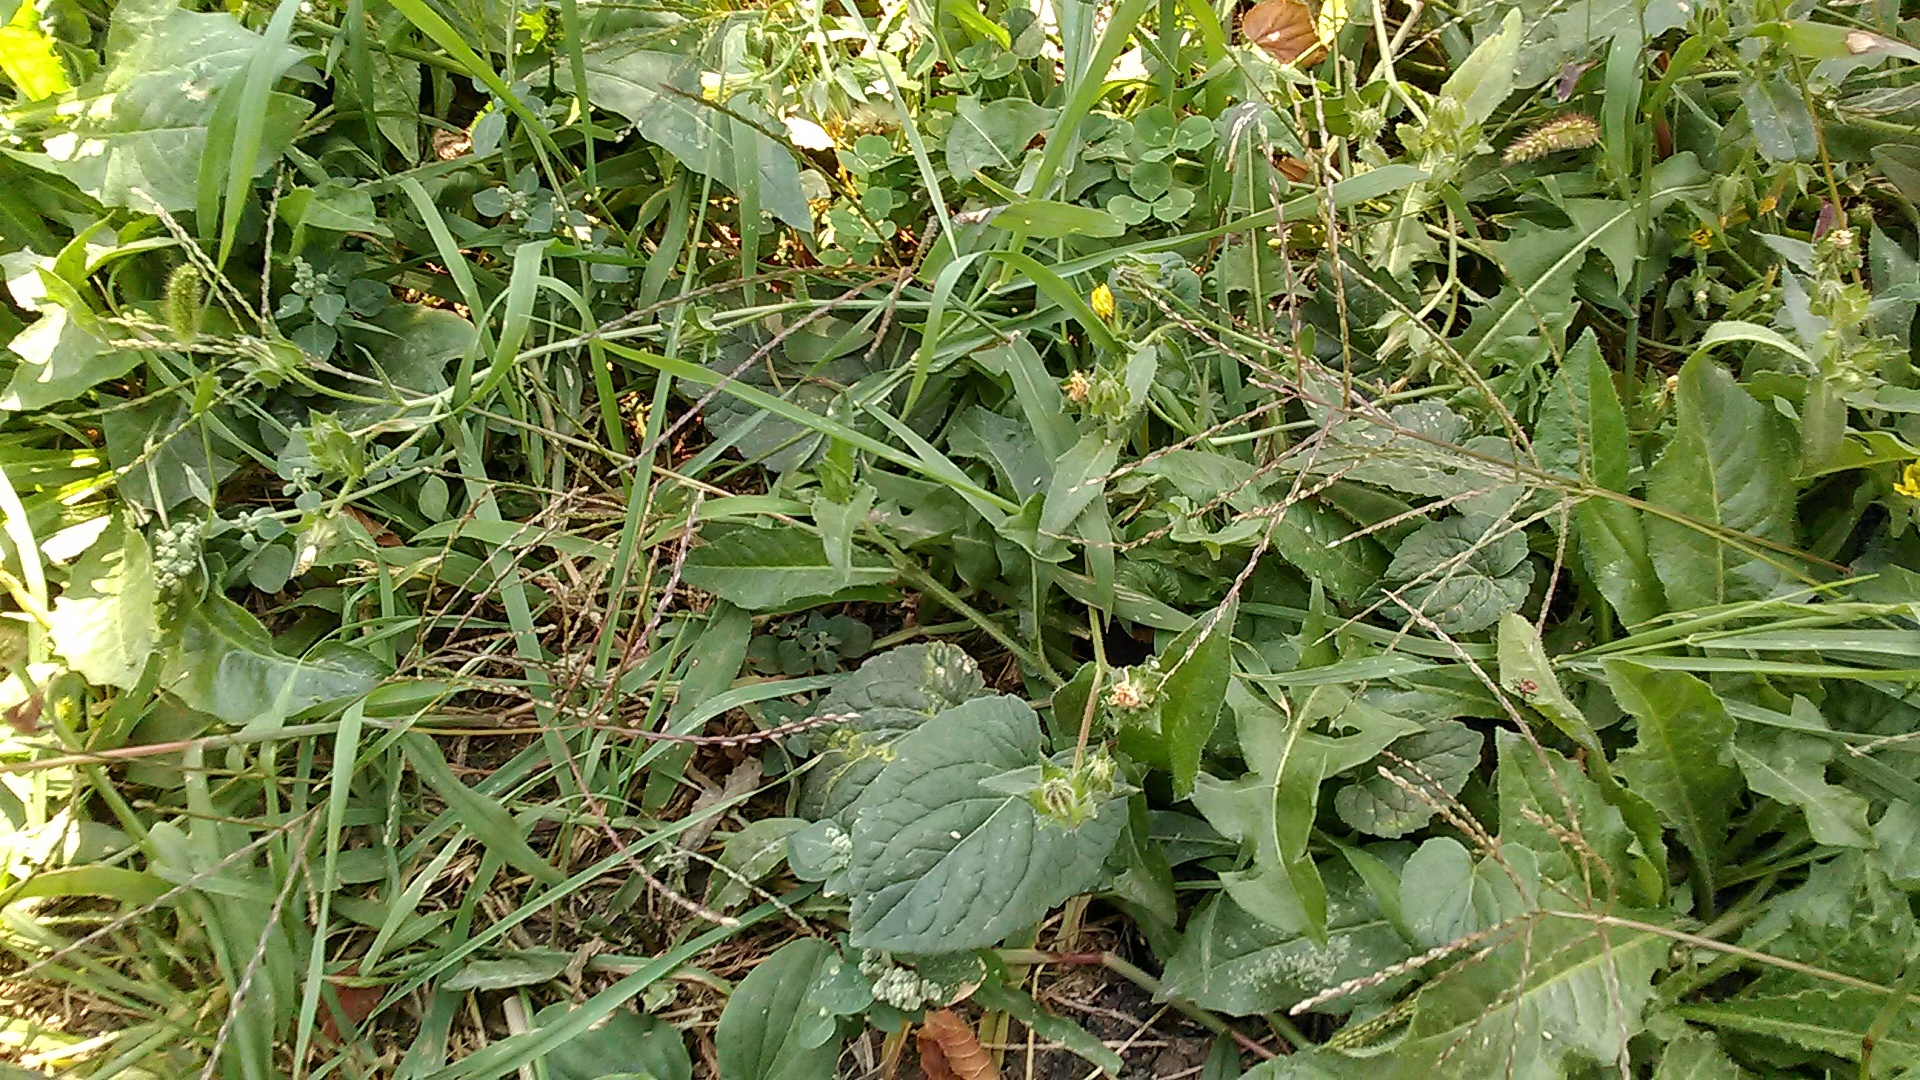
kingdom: Plantae
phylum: Tracheophyta
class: Liliopsida
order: Poales
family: Poaceae
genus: Digitaria
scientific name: Digitaria sanguinalis
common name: Hairy crabgrass
